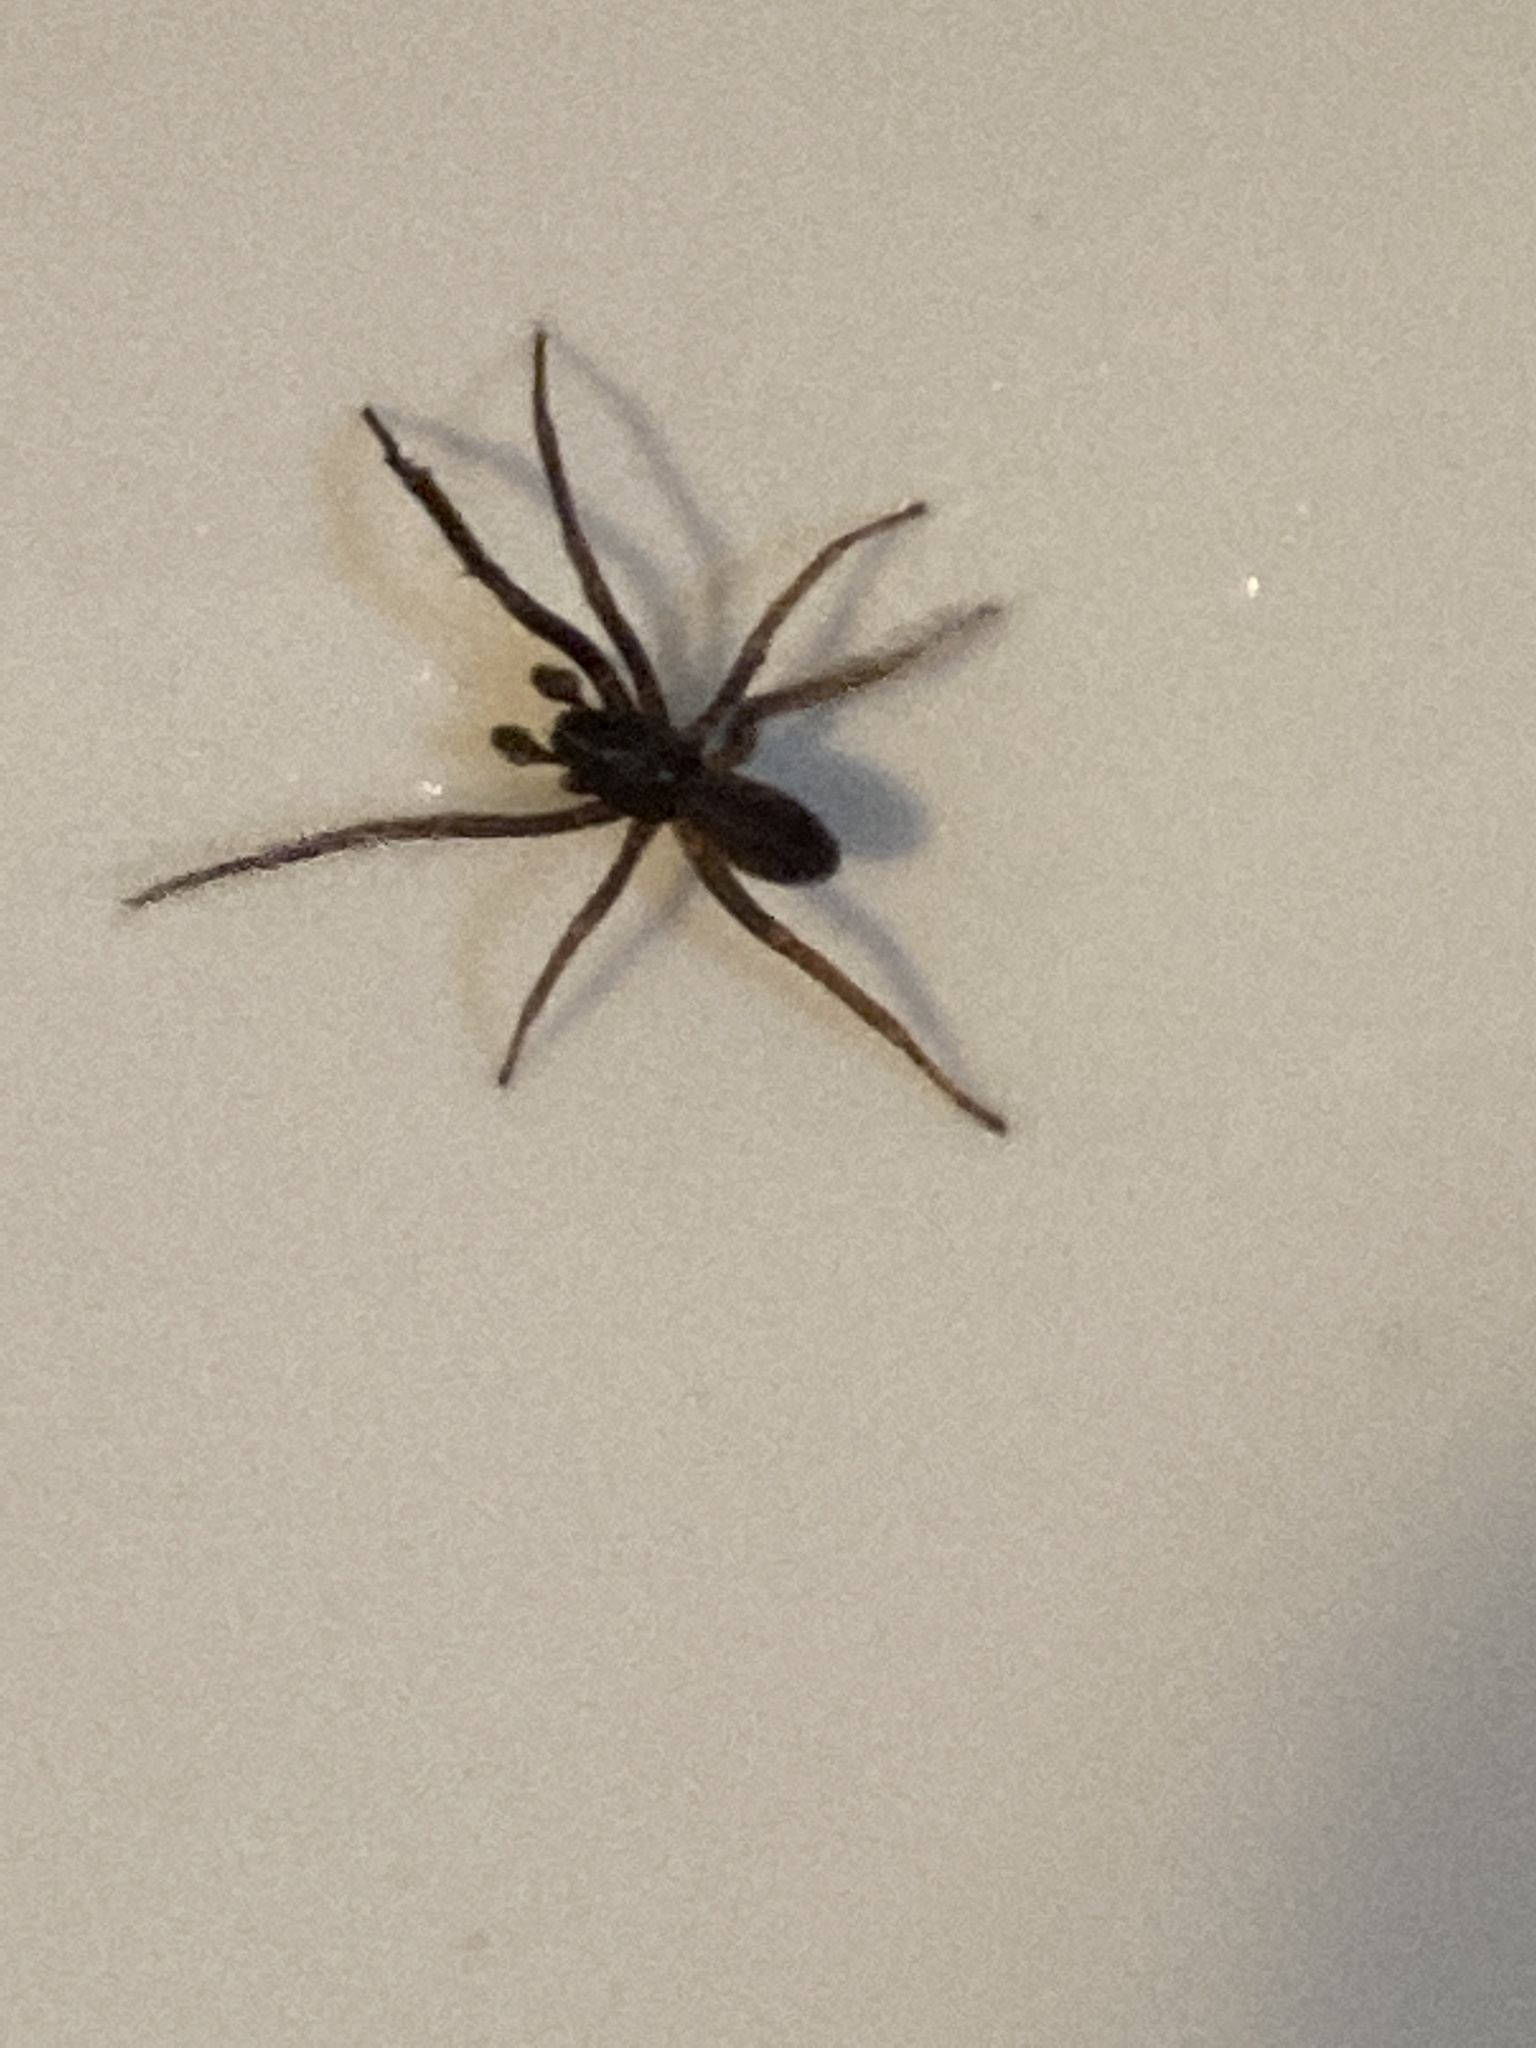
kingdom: Animalia
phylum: Arthropoda
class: Arachnida
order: Araneae
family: Segestriidae
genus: Ariadna
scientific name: Ariadna bicolor
